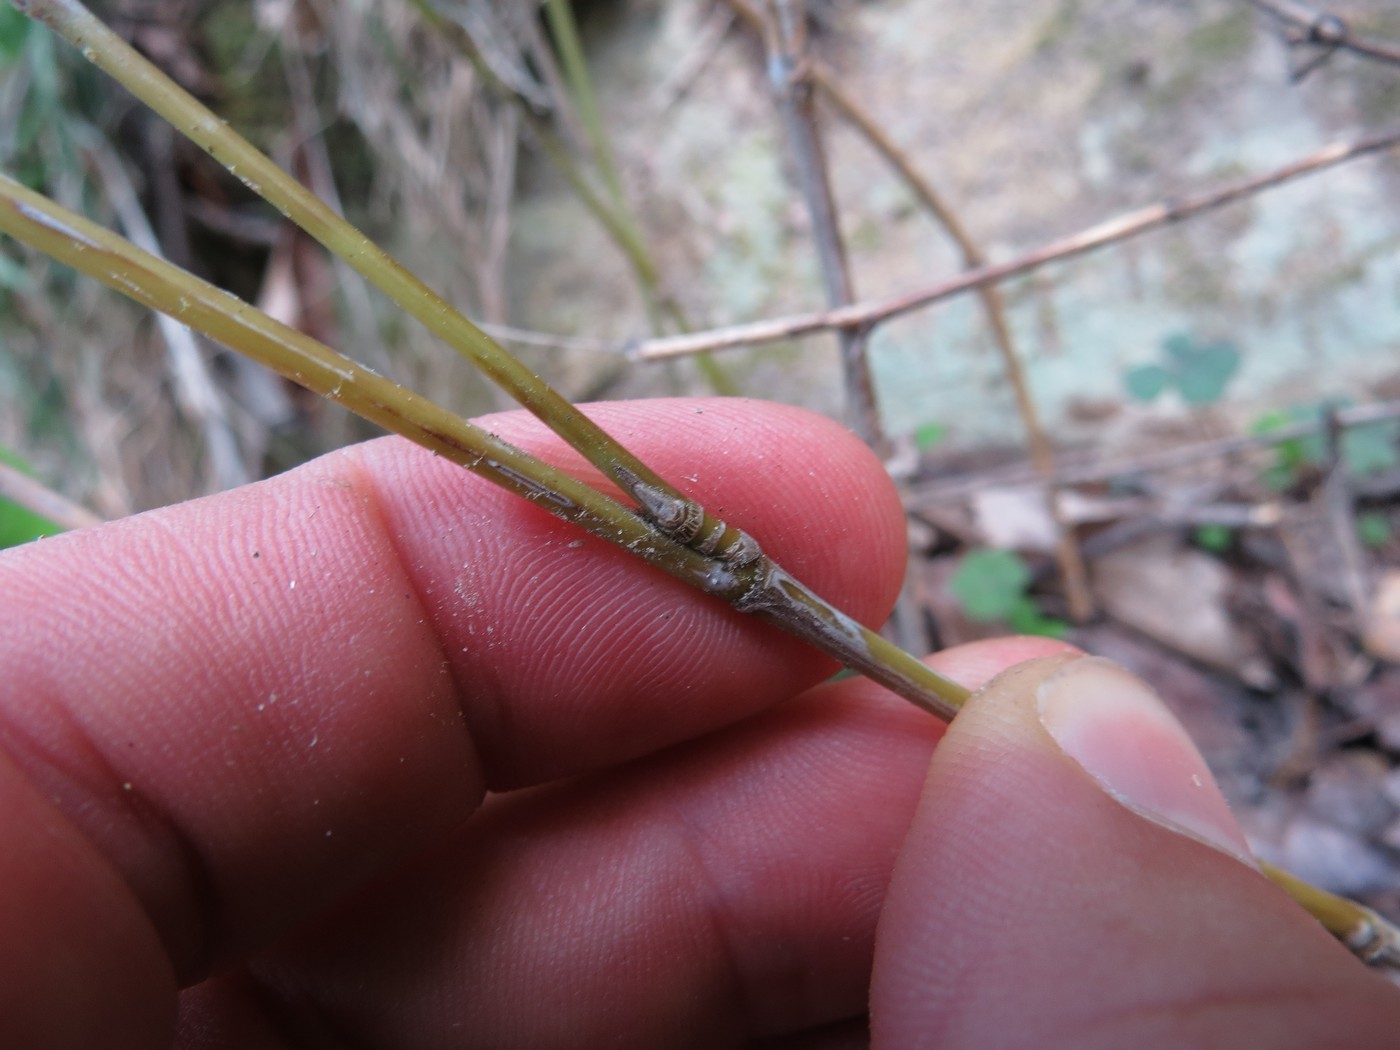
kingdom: Plantae
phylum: Tracheophyta
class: Liliopsida
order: Poales
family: Poaceae
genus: Arundinaria
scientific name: Arundinaria appalachiana
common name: Hill cane
